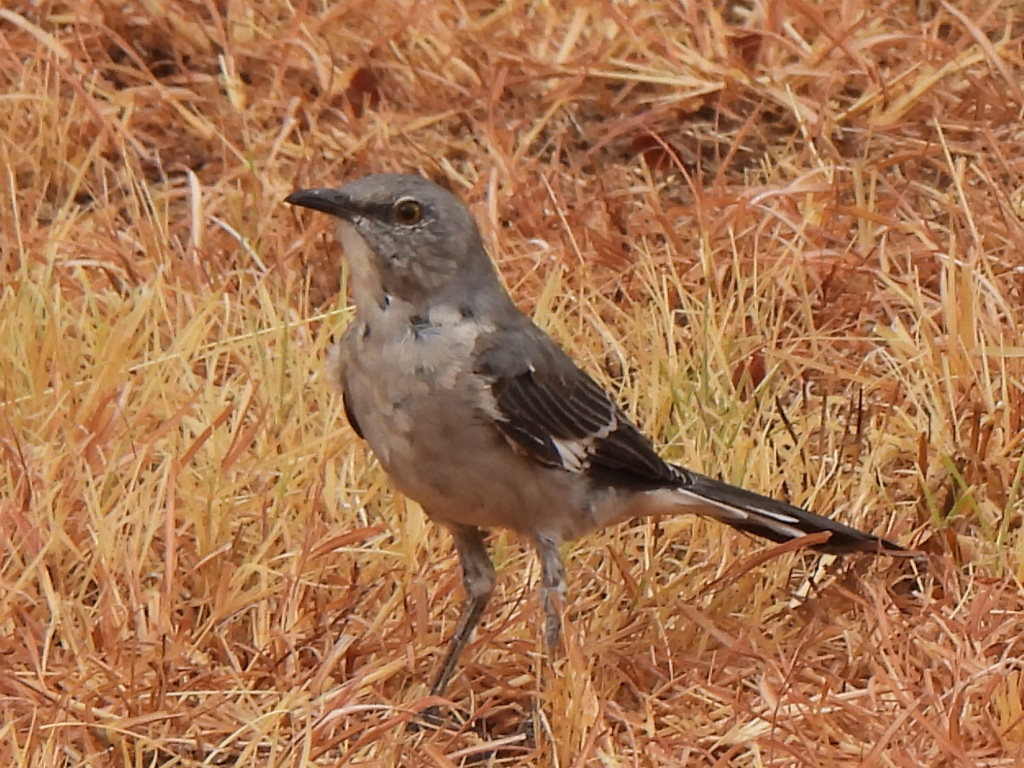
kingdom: Animalia
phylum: Chordata
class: Aves
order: Passeriformes
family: Mimidae
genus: Mimus
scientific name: Mimus polyglottos
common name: Northern mockingbird
